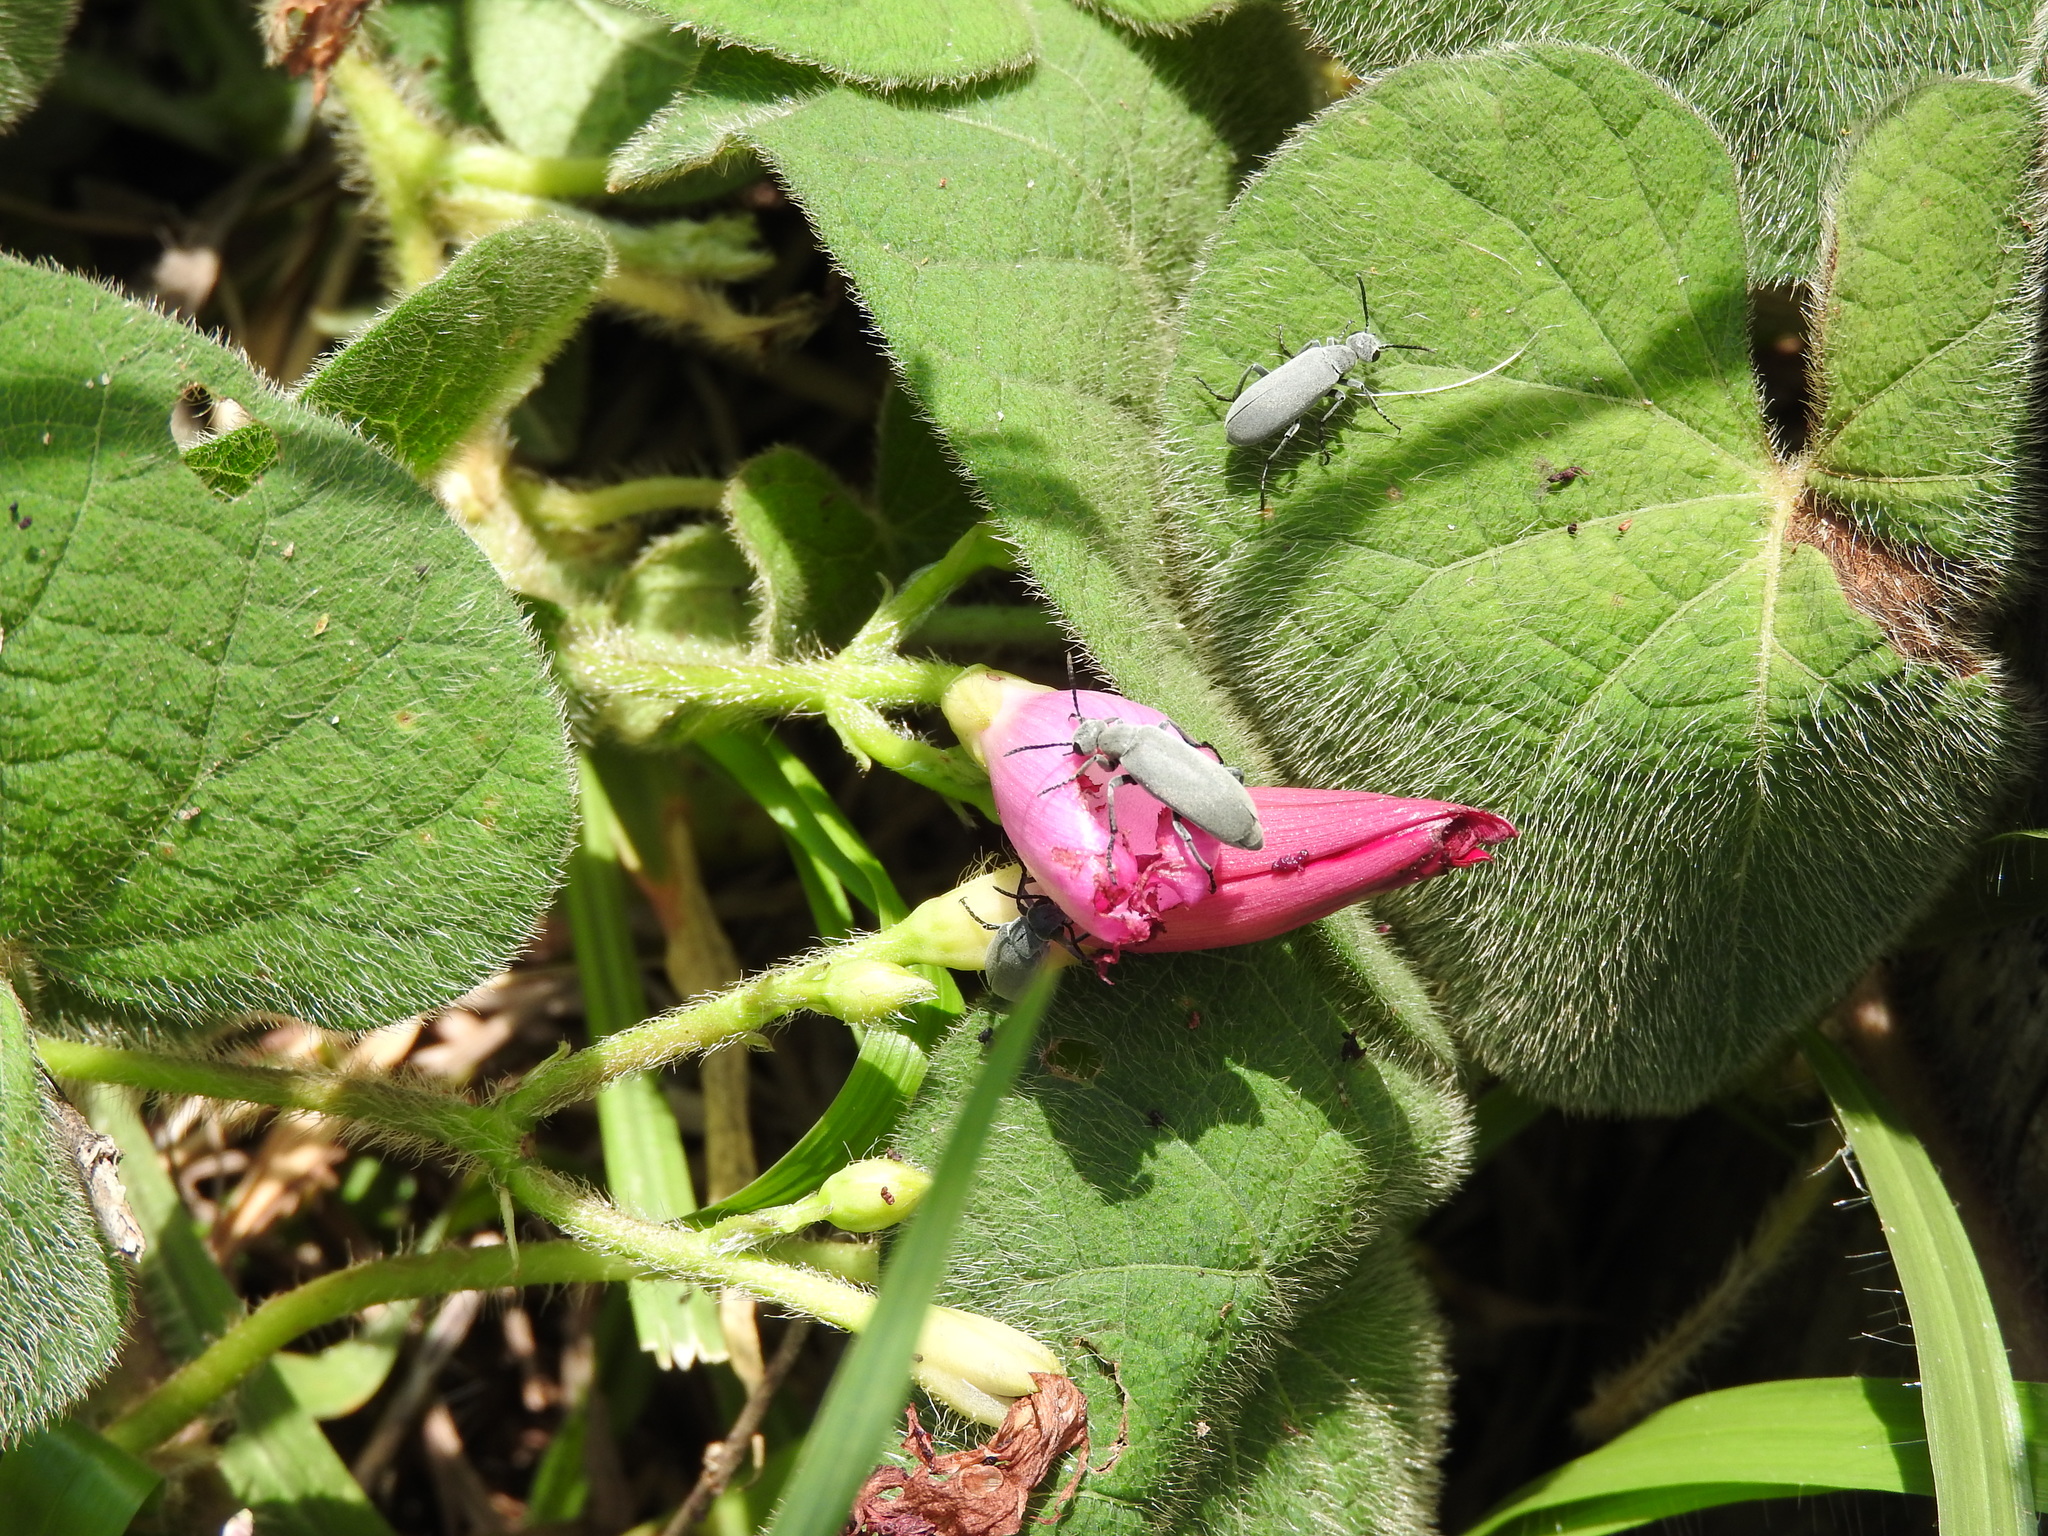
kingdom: Plantae
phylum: Tracheophyta
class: Magnoliopsida
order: Solanales
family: Convolvulaceae
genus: Ipomoea
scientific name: Ipomoea orizabensis
